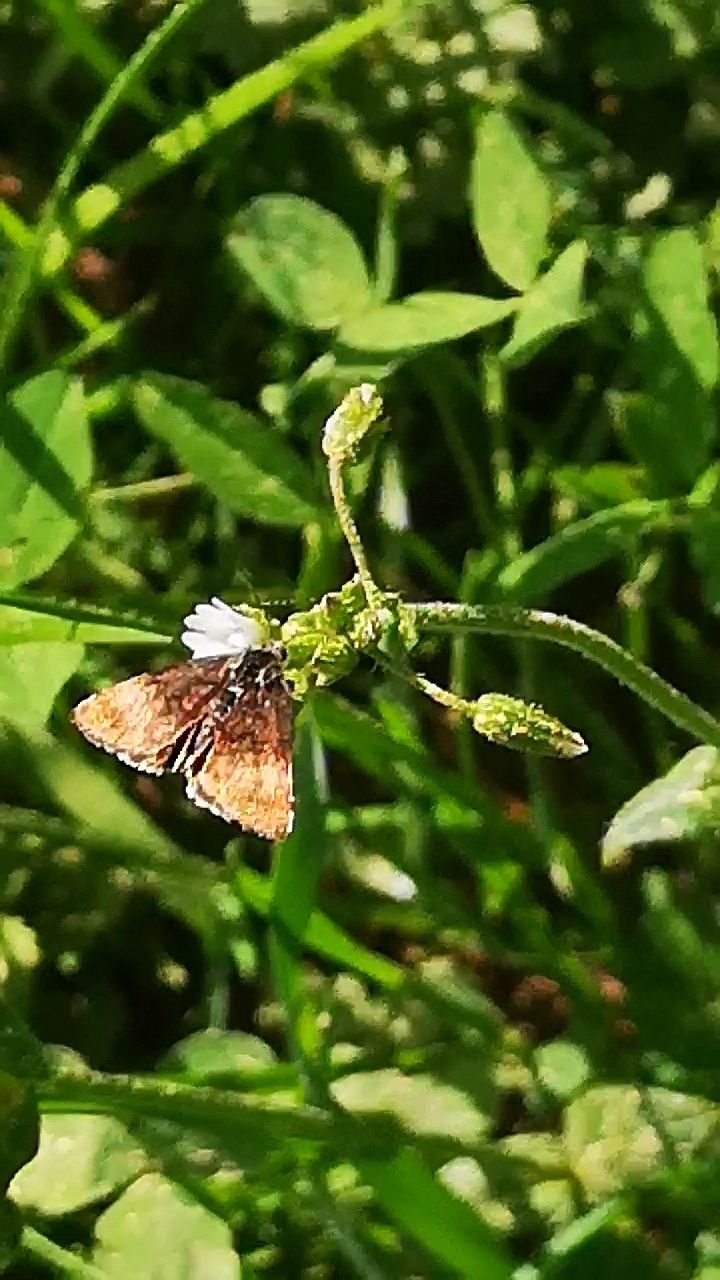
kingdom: Animalia
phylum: Arthropoda
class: Insecta
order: Lepidoptera
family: Noctuidae
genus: Panemeria
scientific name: Panemeria tenebrata
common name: Small yellow underwing
